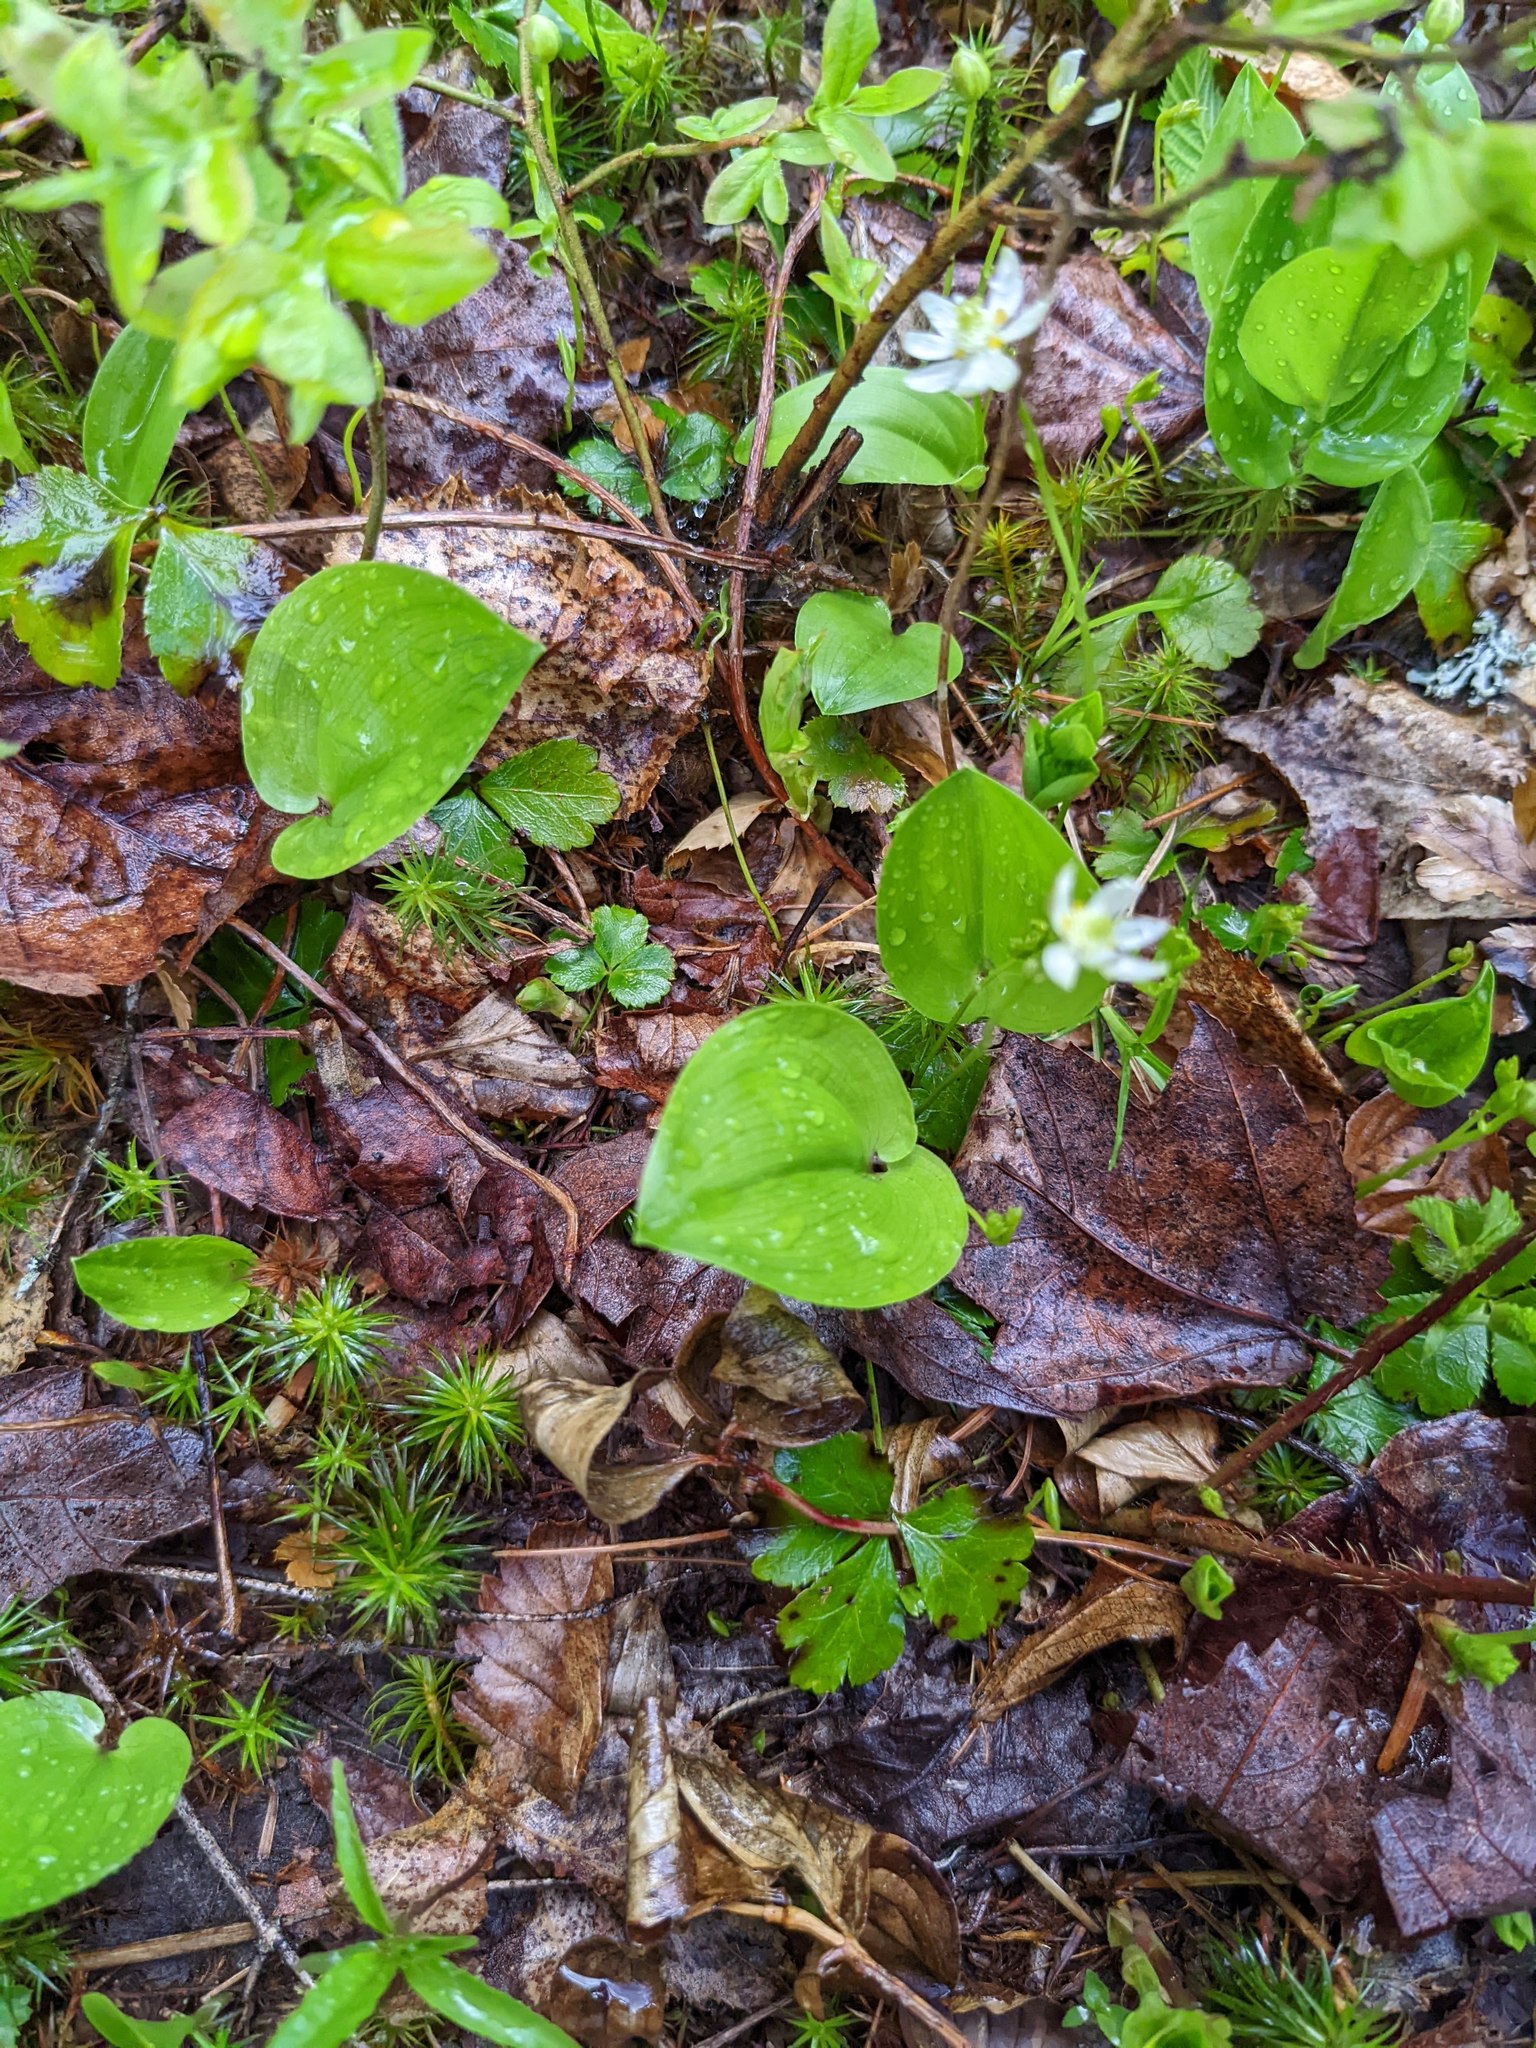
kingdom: Plantae
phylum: Tracheophyta
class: Liliopsida
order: Asparagales
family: Asparagaceae
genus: Maianthemum
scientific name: Maianthemum canadense
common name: False lily-of-the-valley
